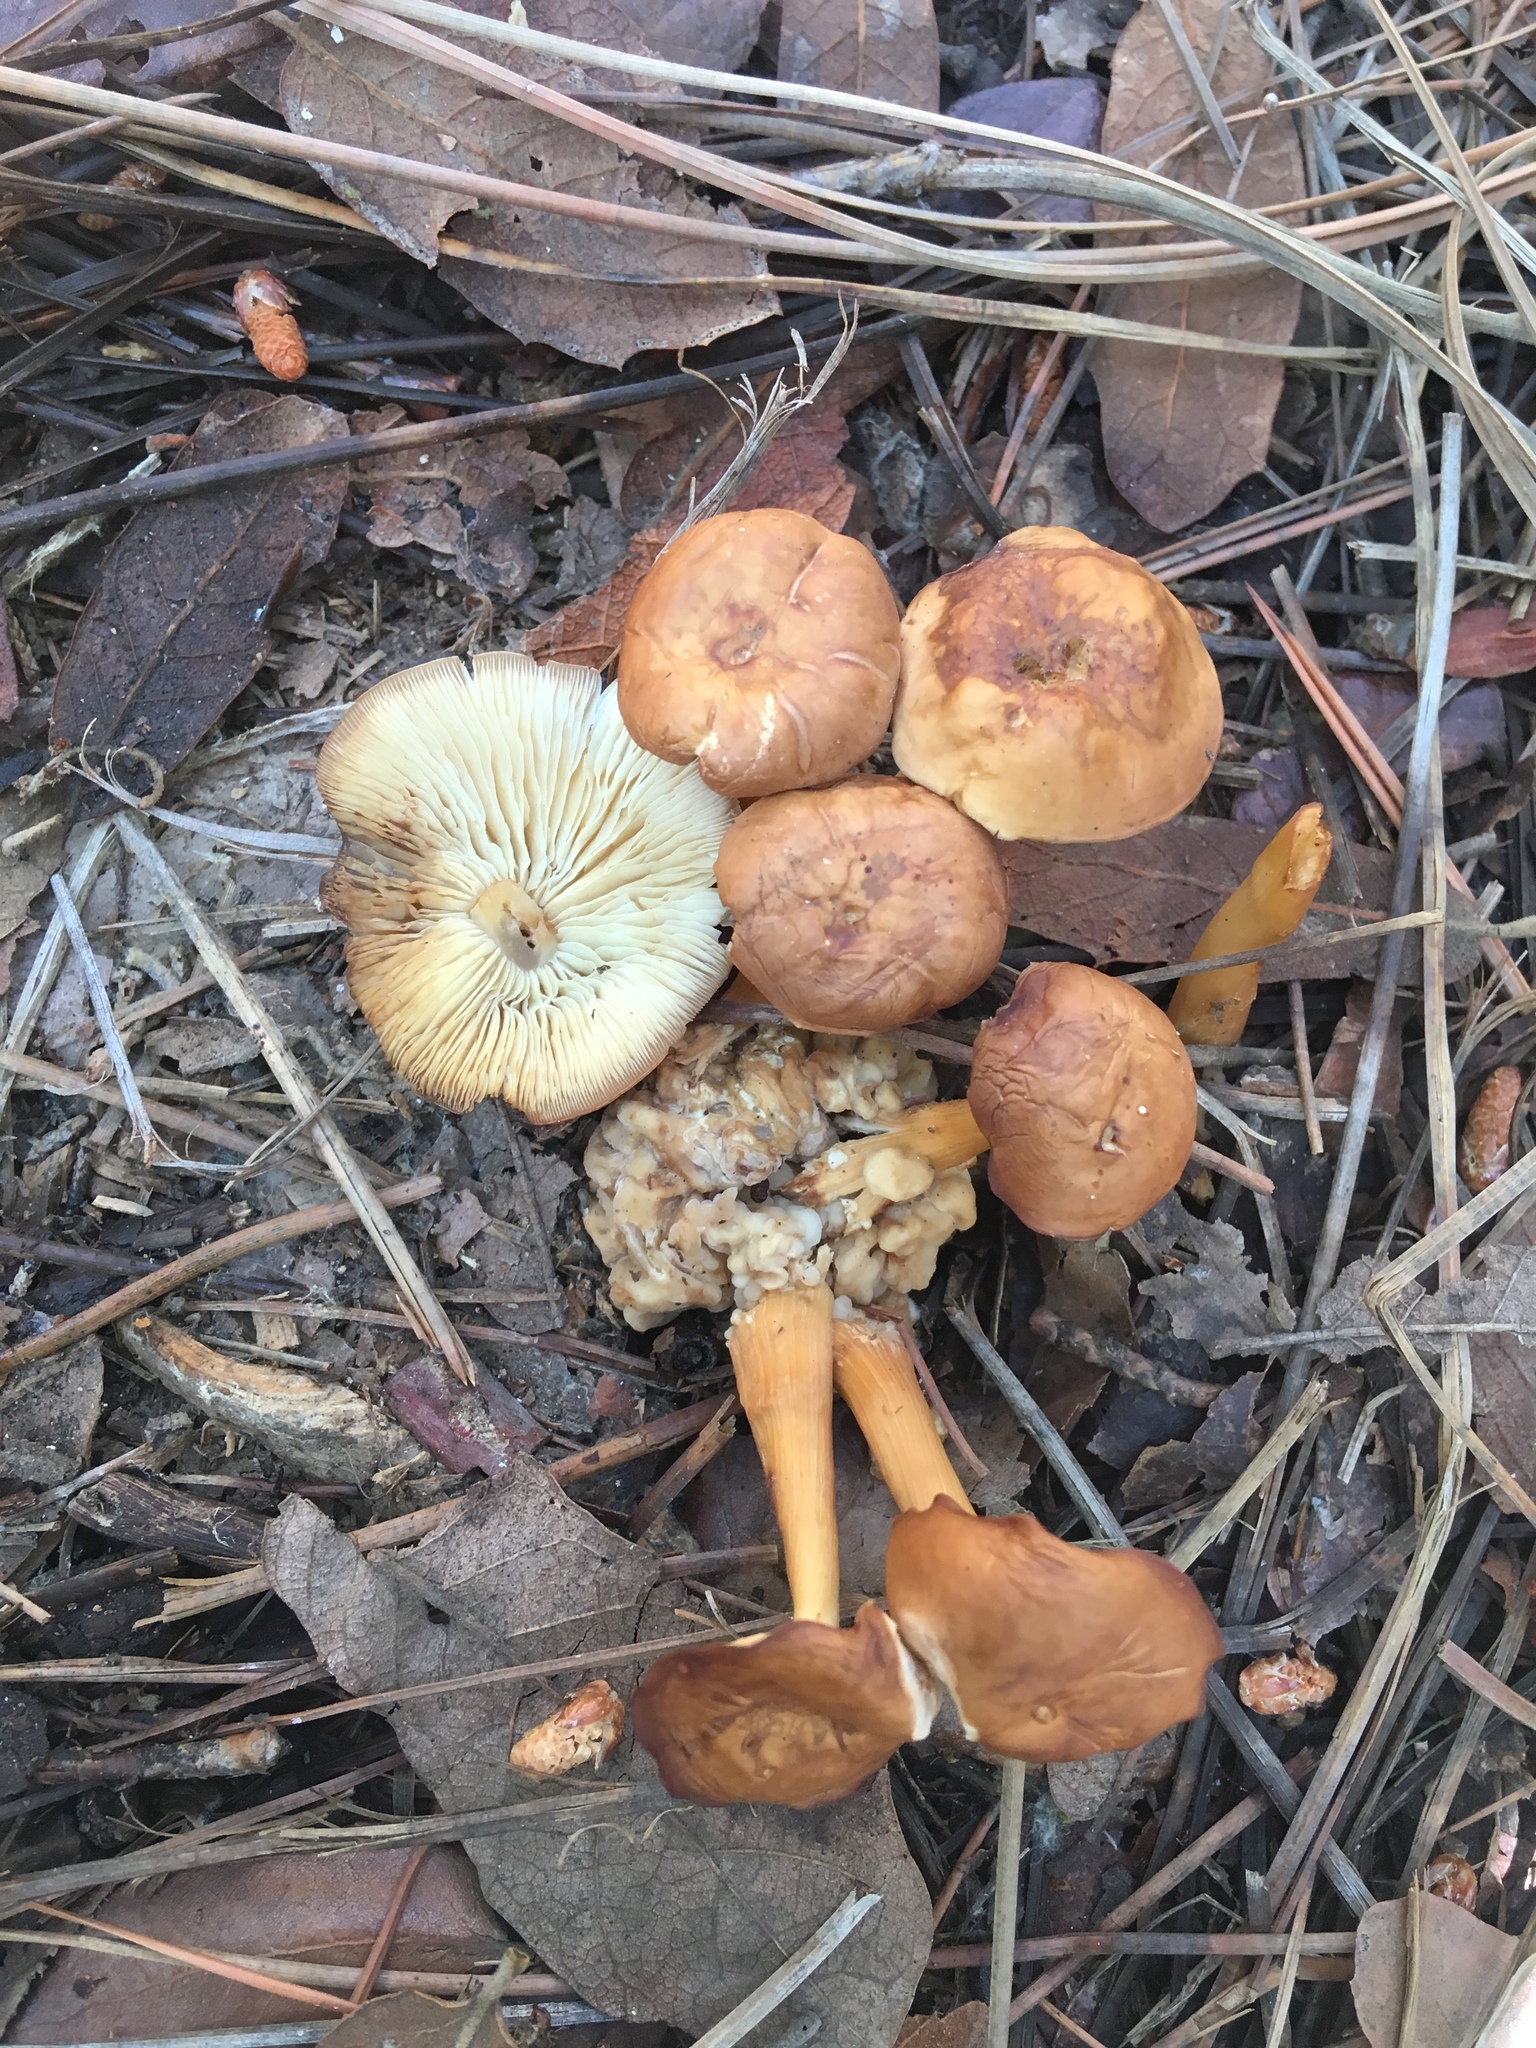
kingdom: Fungi
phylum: Basidiomycota
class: Tremellomycetes
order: Filobasidiales
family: Filobasidiaceae
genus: Syzygospora
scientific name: Syzygospora mycetophila
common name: Collybia clouds
